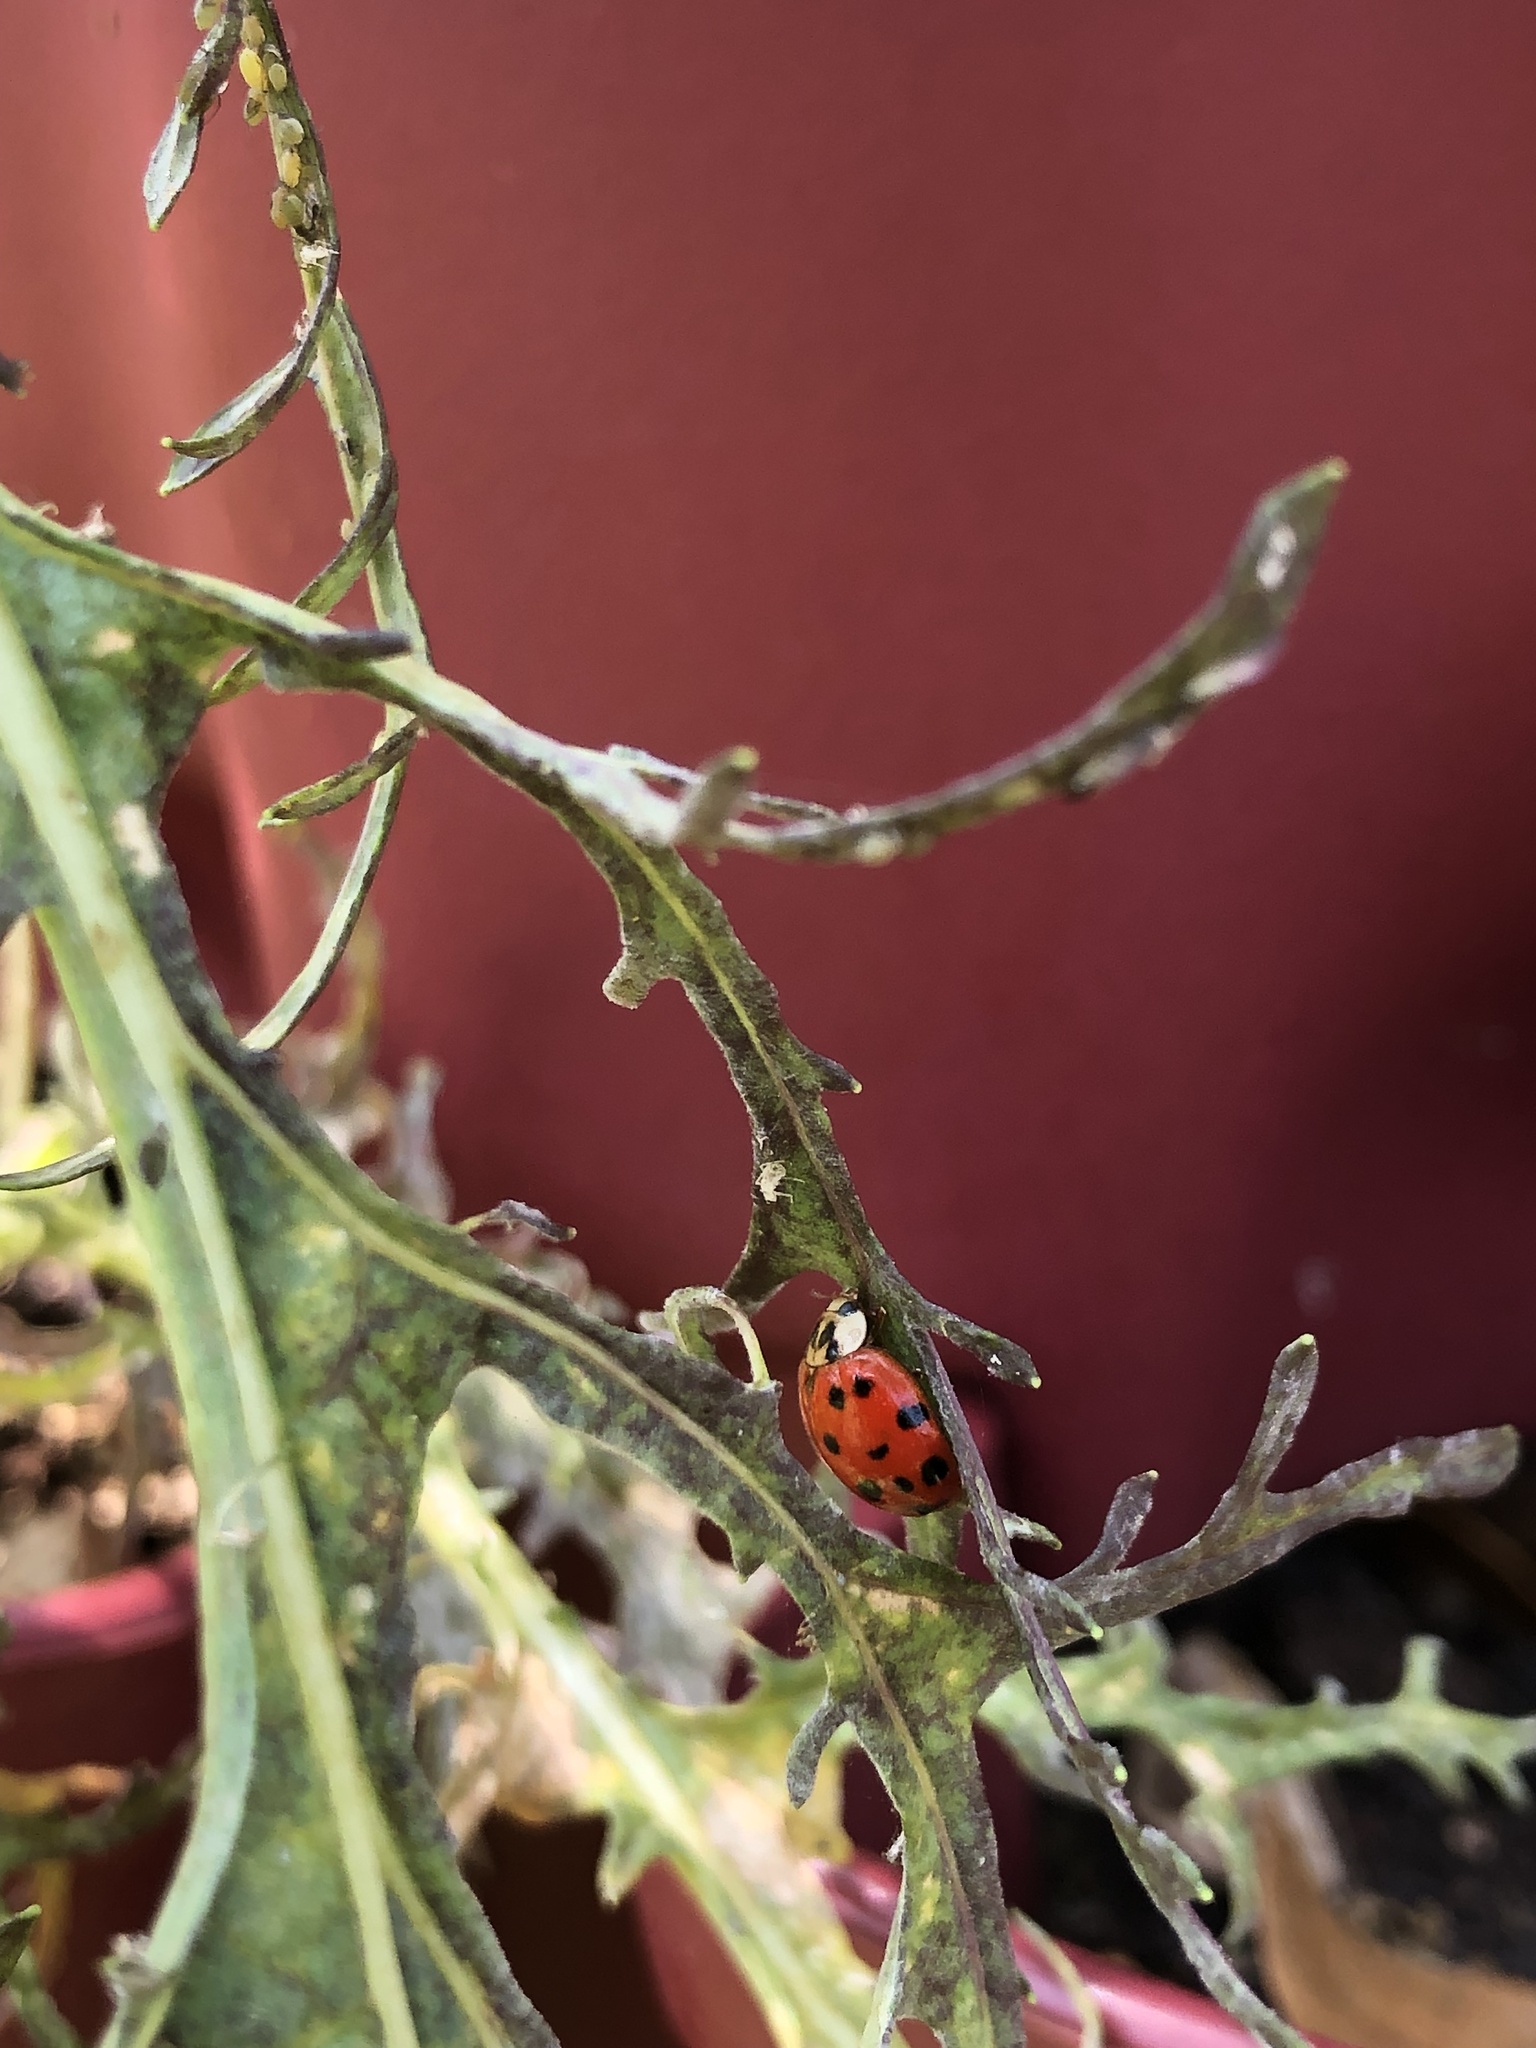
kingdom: Animalia
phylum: Arthropoda
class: Insecta
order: Coleoptera
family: Coccinellidae
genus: Harmonia
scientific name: Harmonia axyridis
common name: Harlequin ladybird
